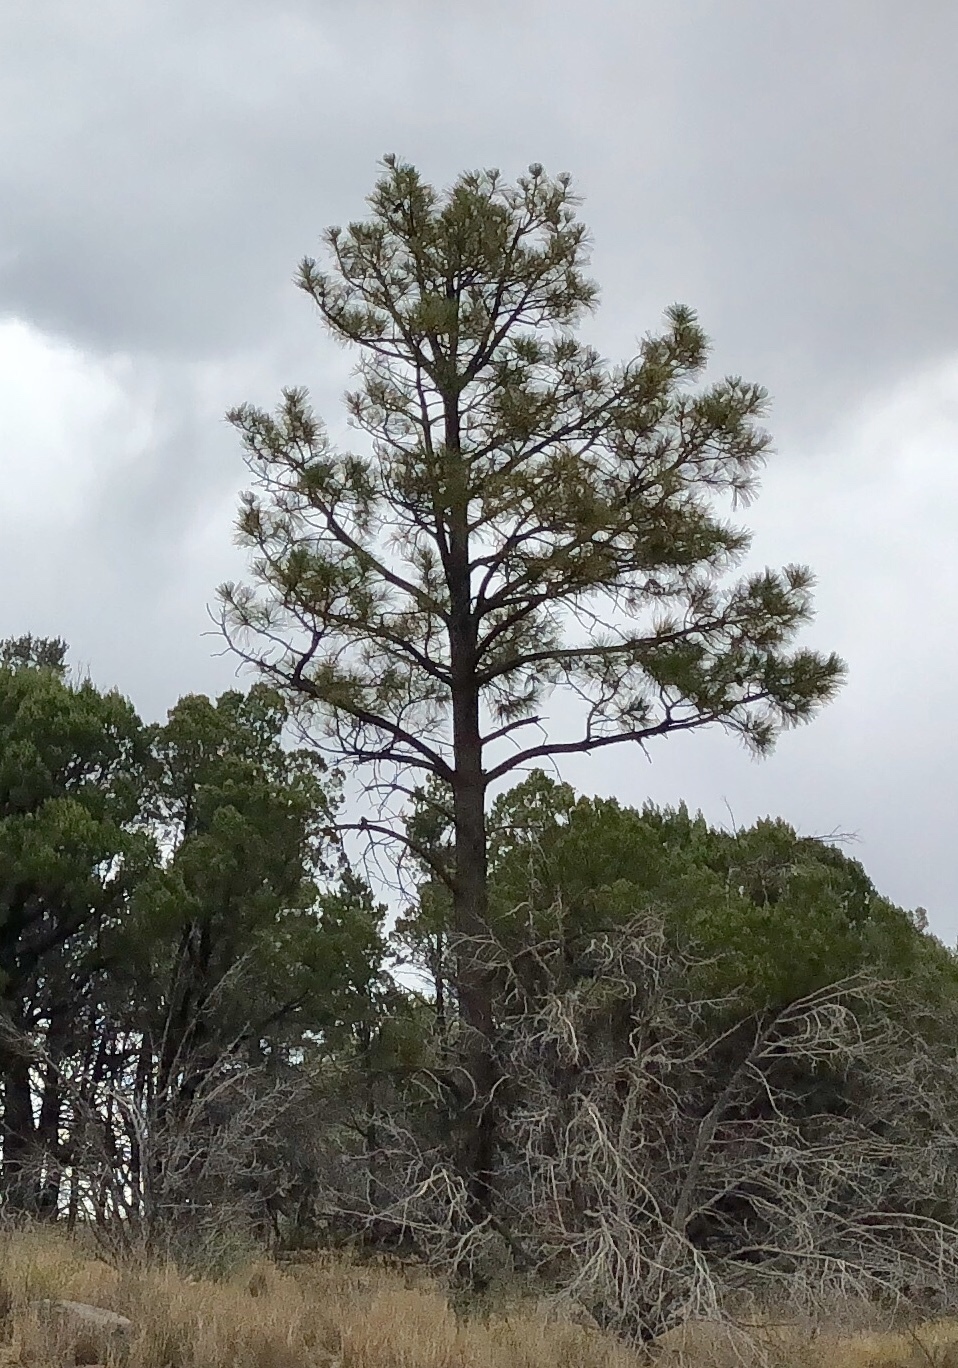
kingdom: Plantae
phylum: Tracheophyta
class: Pinopsida
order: Pinales
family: Pinaceae
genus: Pinus
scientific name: Pinus ponderosa
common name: Western yellow-pine
